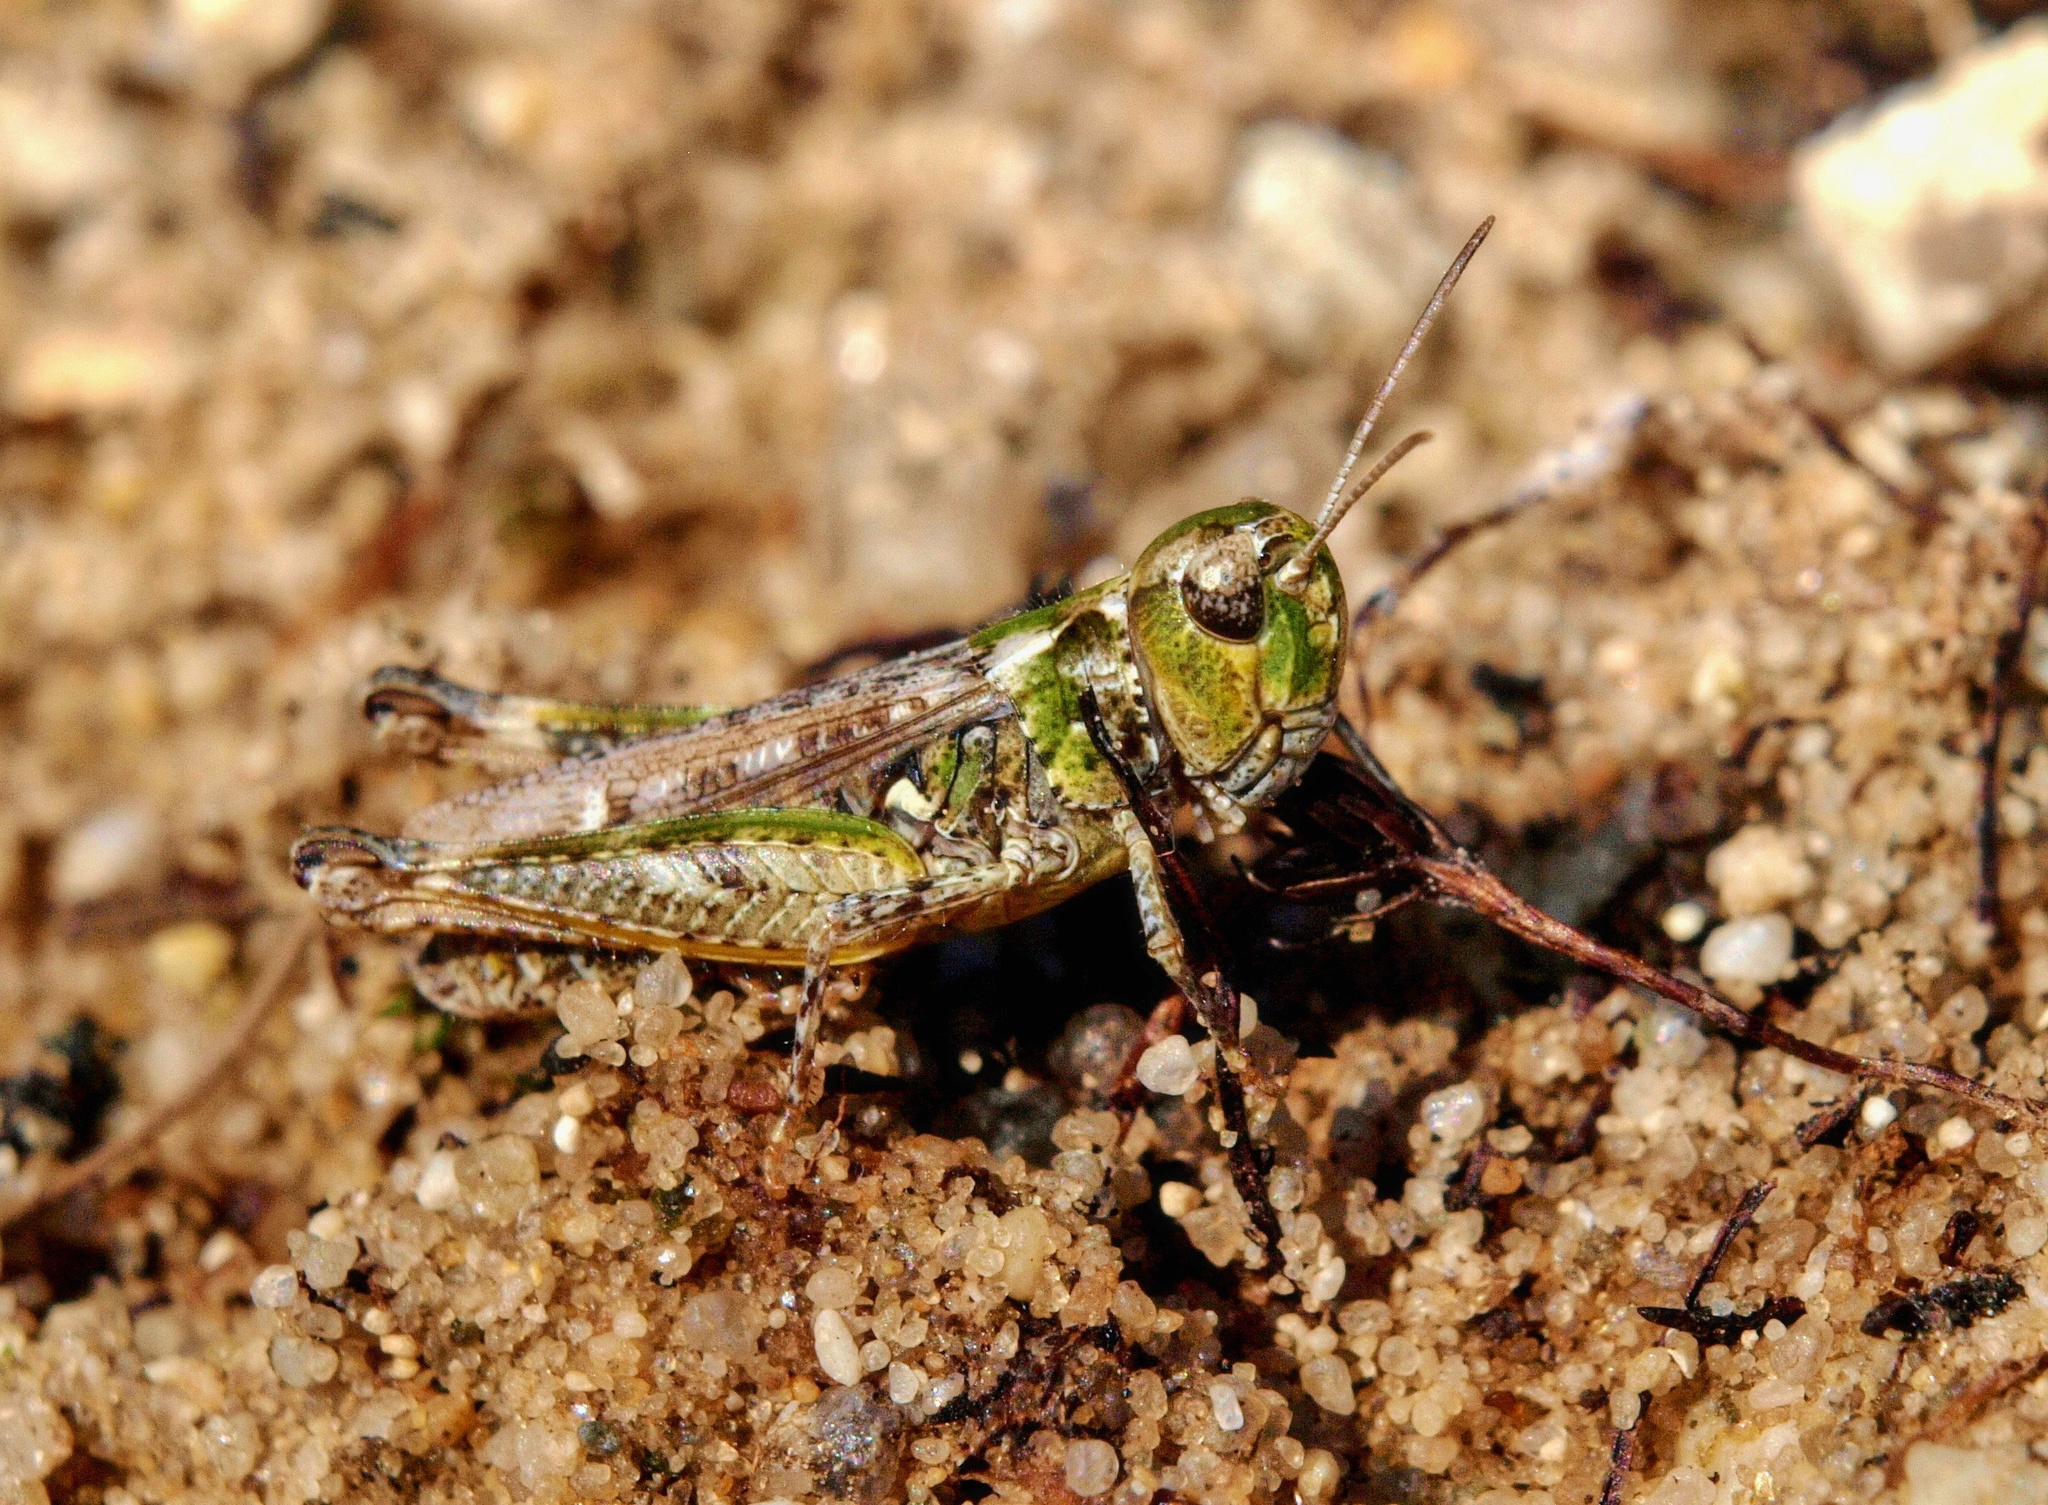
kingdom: Animalia
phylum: Arthropoda
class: Insecta
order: Orthoptera
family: Acrididae
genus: Myrmeleotettix
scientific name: Myrmeleotettix maculatus
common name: Mottled grasshopper
